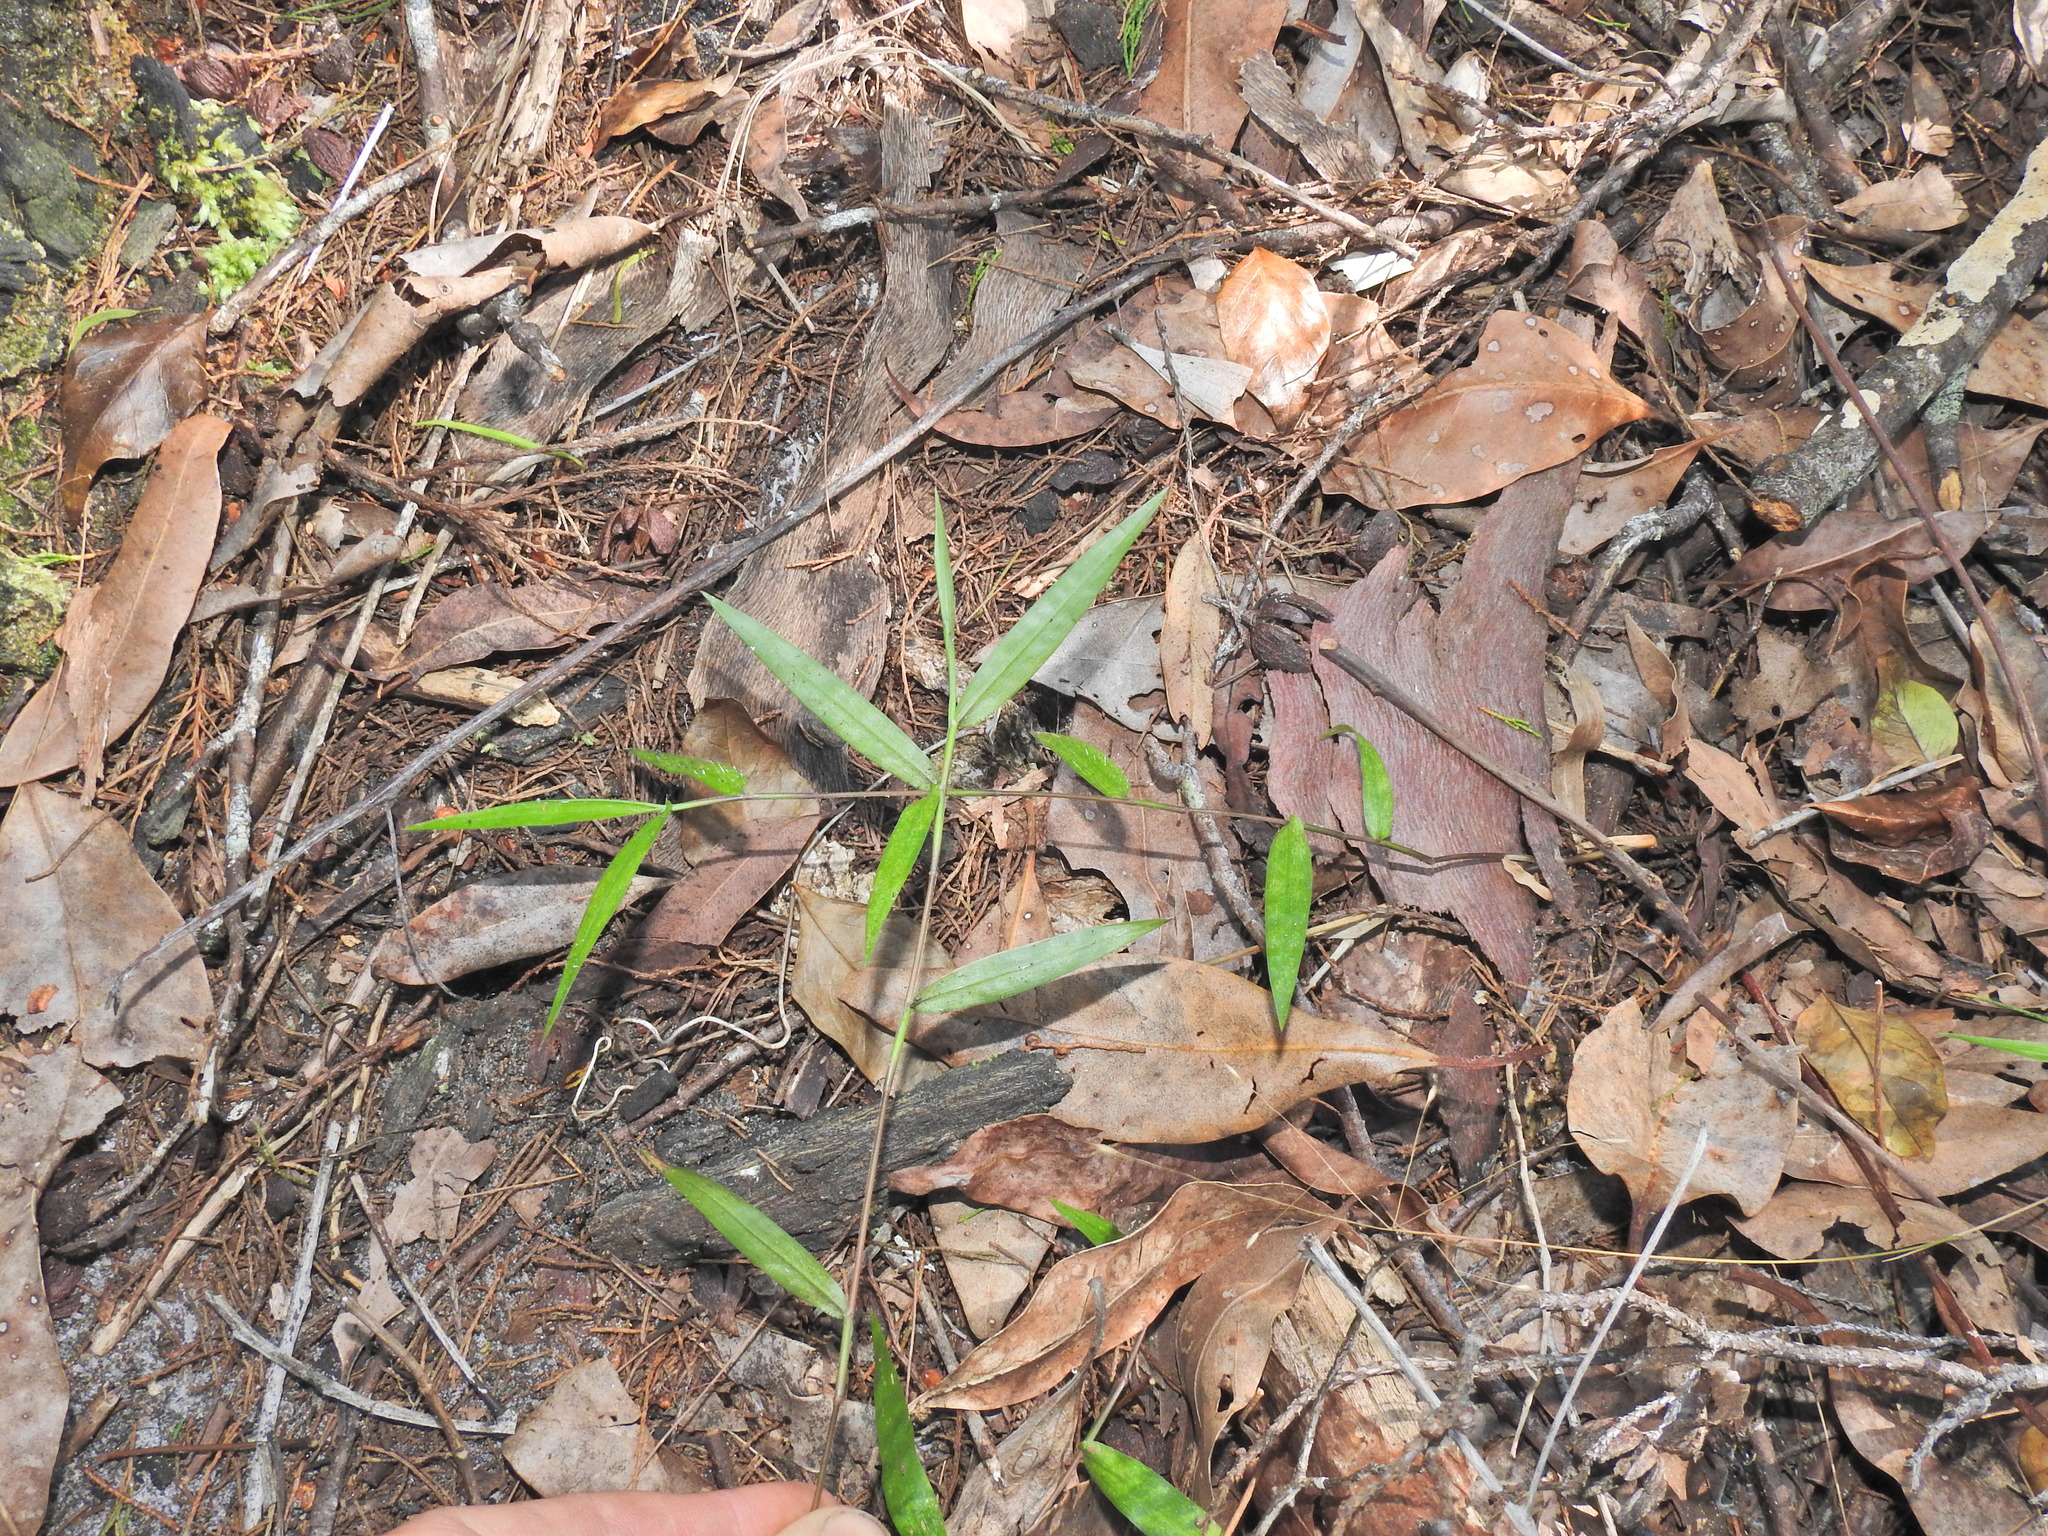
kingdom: Plantae
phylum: Tracheophyta
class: Liliopsida
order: Poales
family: Poaceae
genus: Oplismenus
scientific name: Oplismenus hirtellus
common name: Basketgrass
